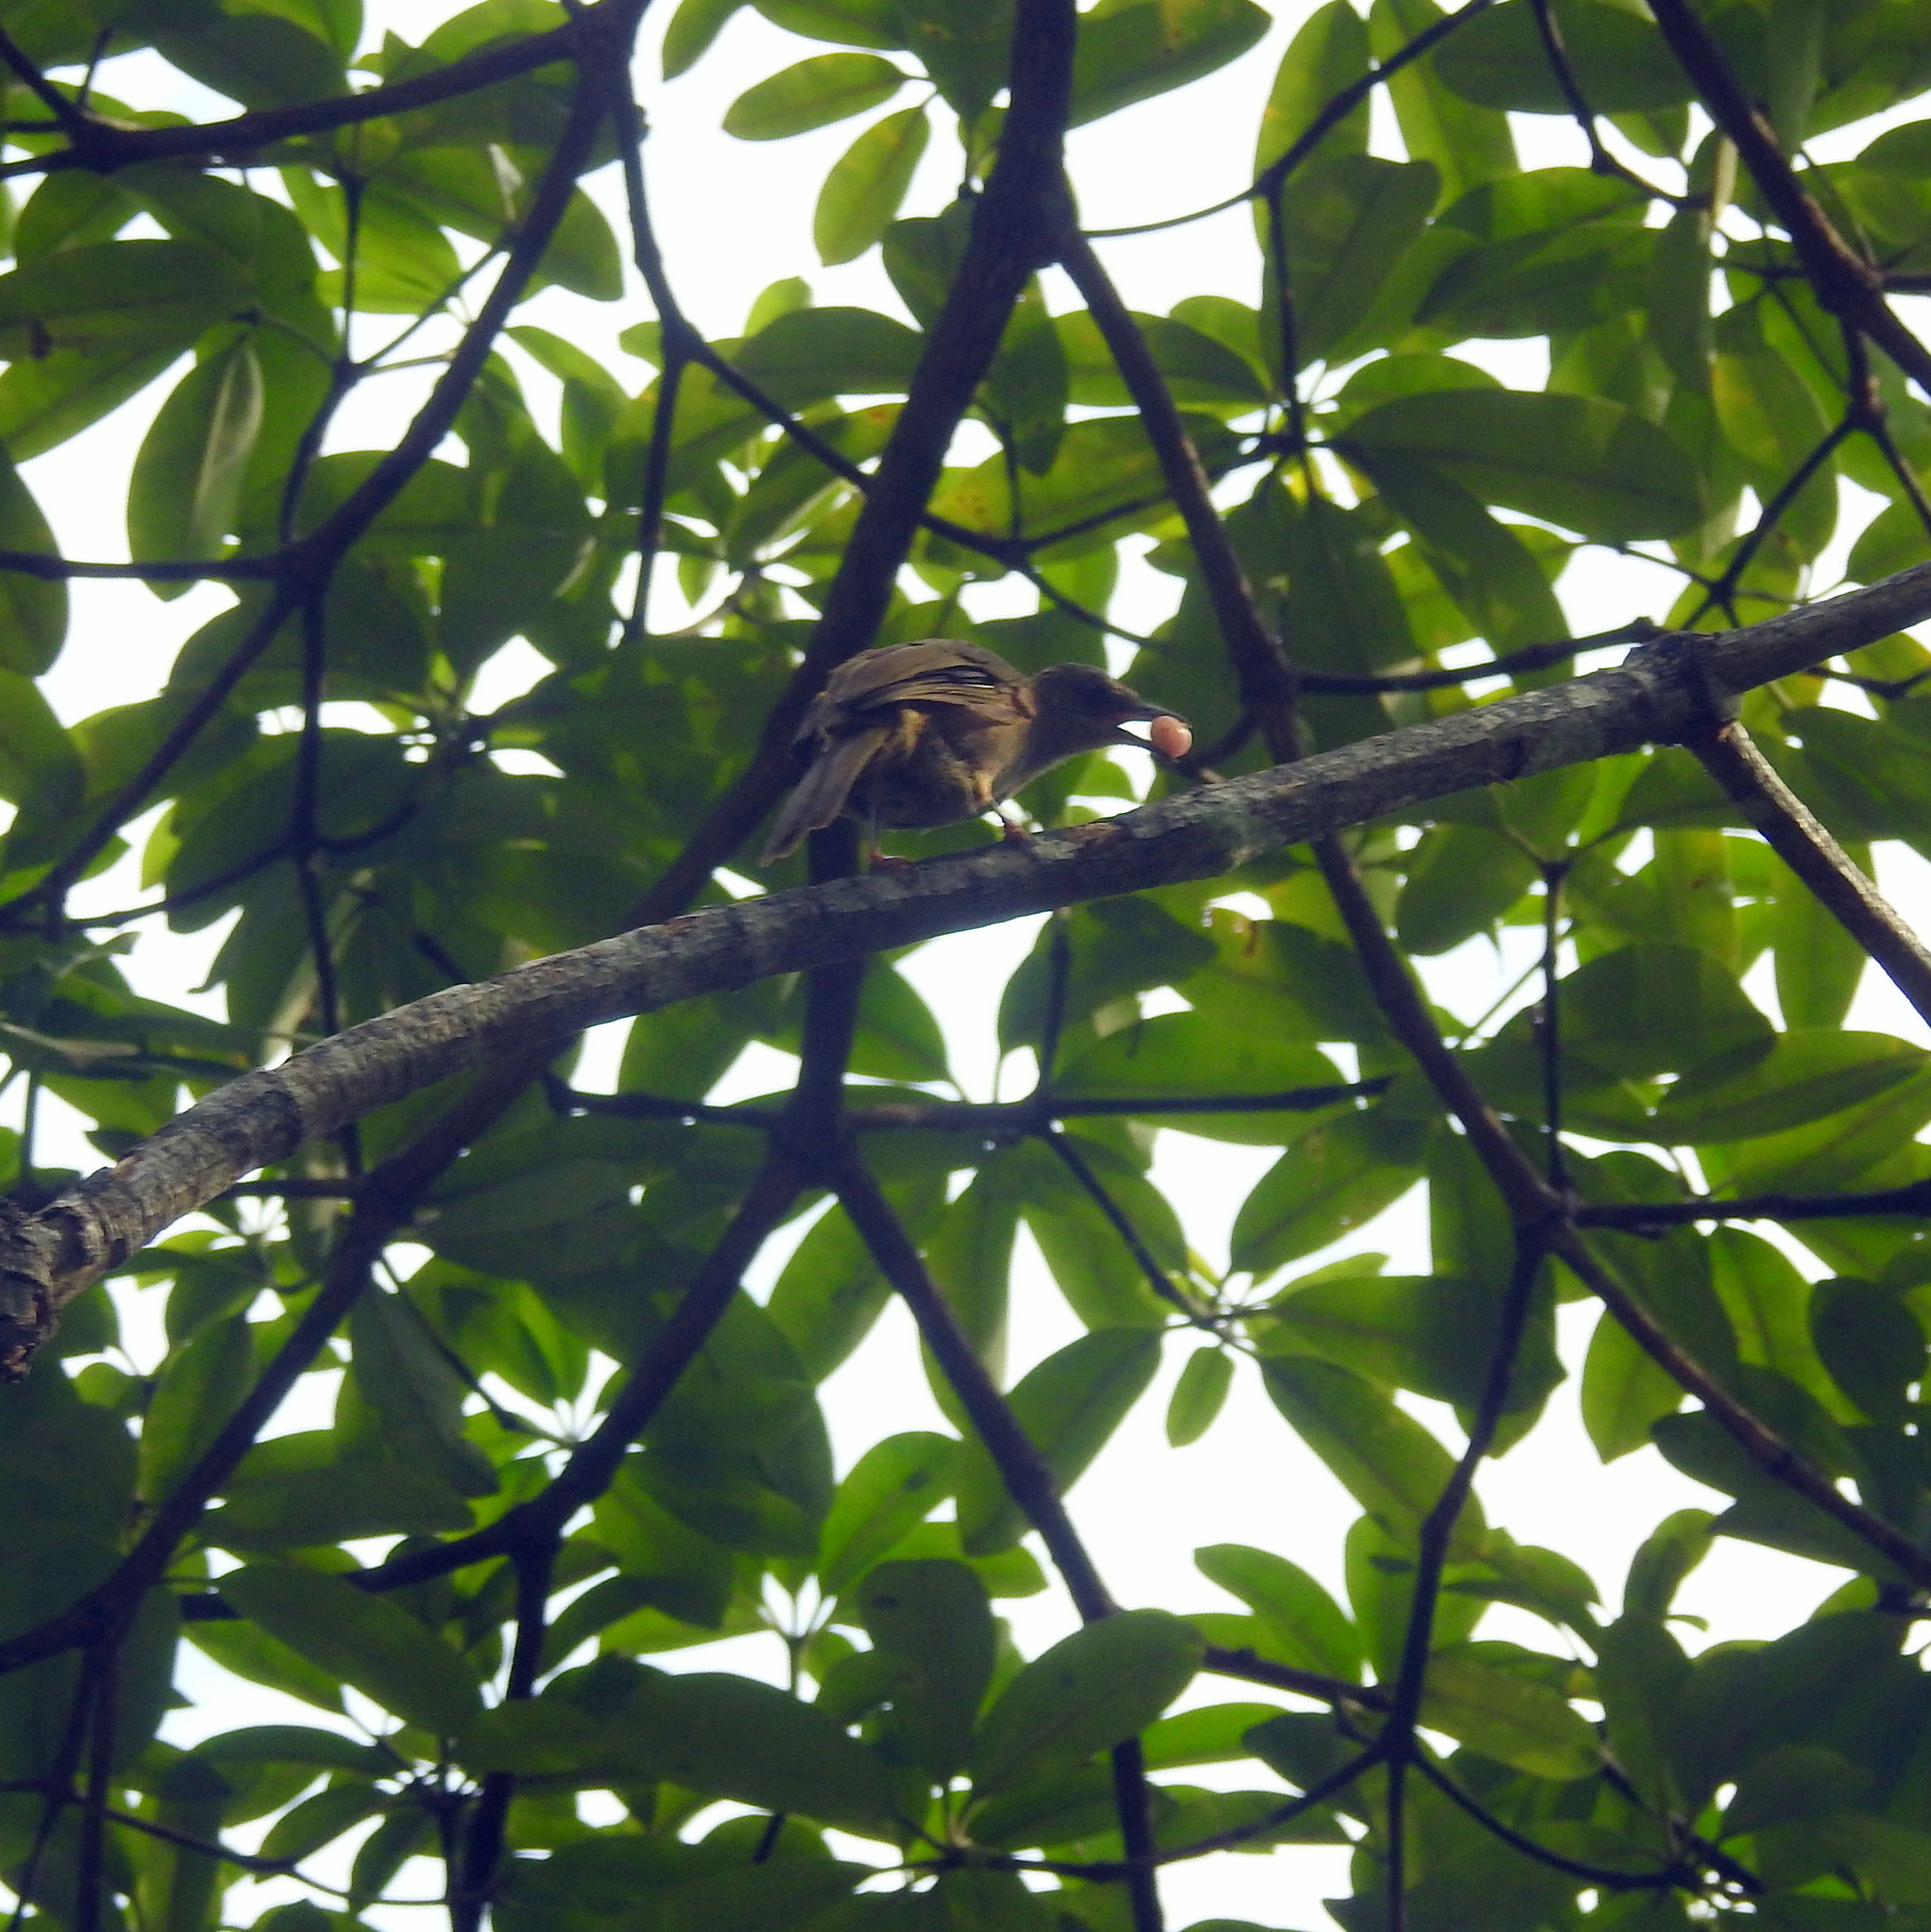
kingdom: Animalia
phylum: Chordata
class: Aves
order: Passeriformes
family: Pycnonotidae
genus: Pycnonotus
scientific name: Pycnonotus plumosus
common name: Olive-winged bulbul
